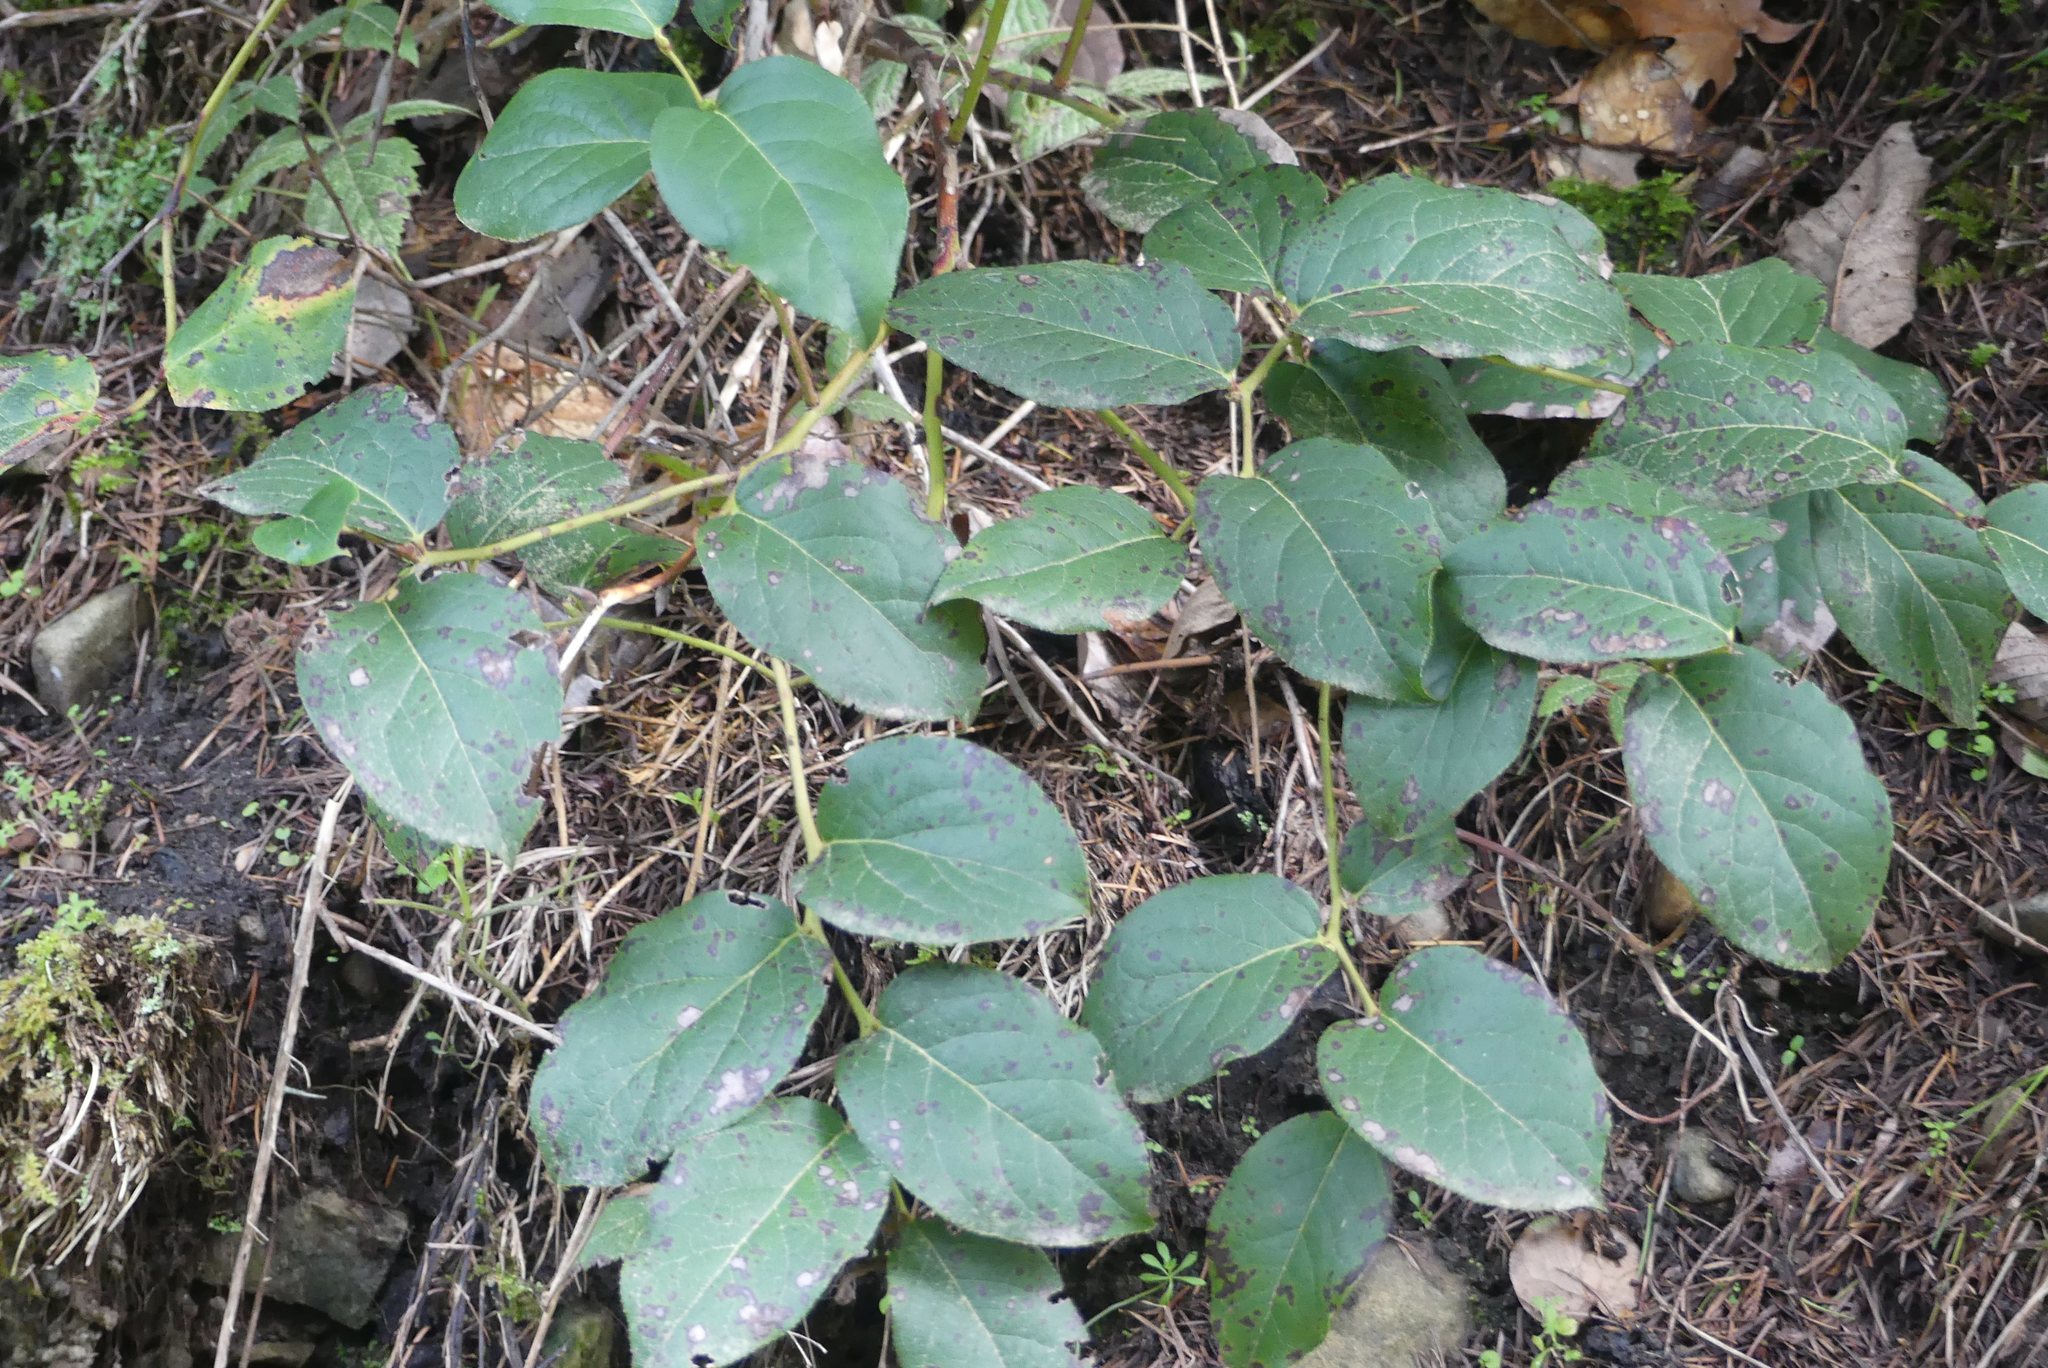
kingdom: Plantae
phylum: Tracheophyta
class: Magnoliopsida
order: Ericales
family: Ericaceae
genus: Gaultheria
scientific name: Gaultheria shallon
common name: Shallon
